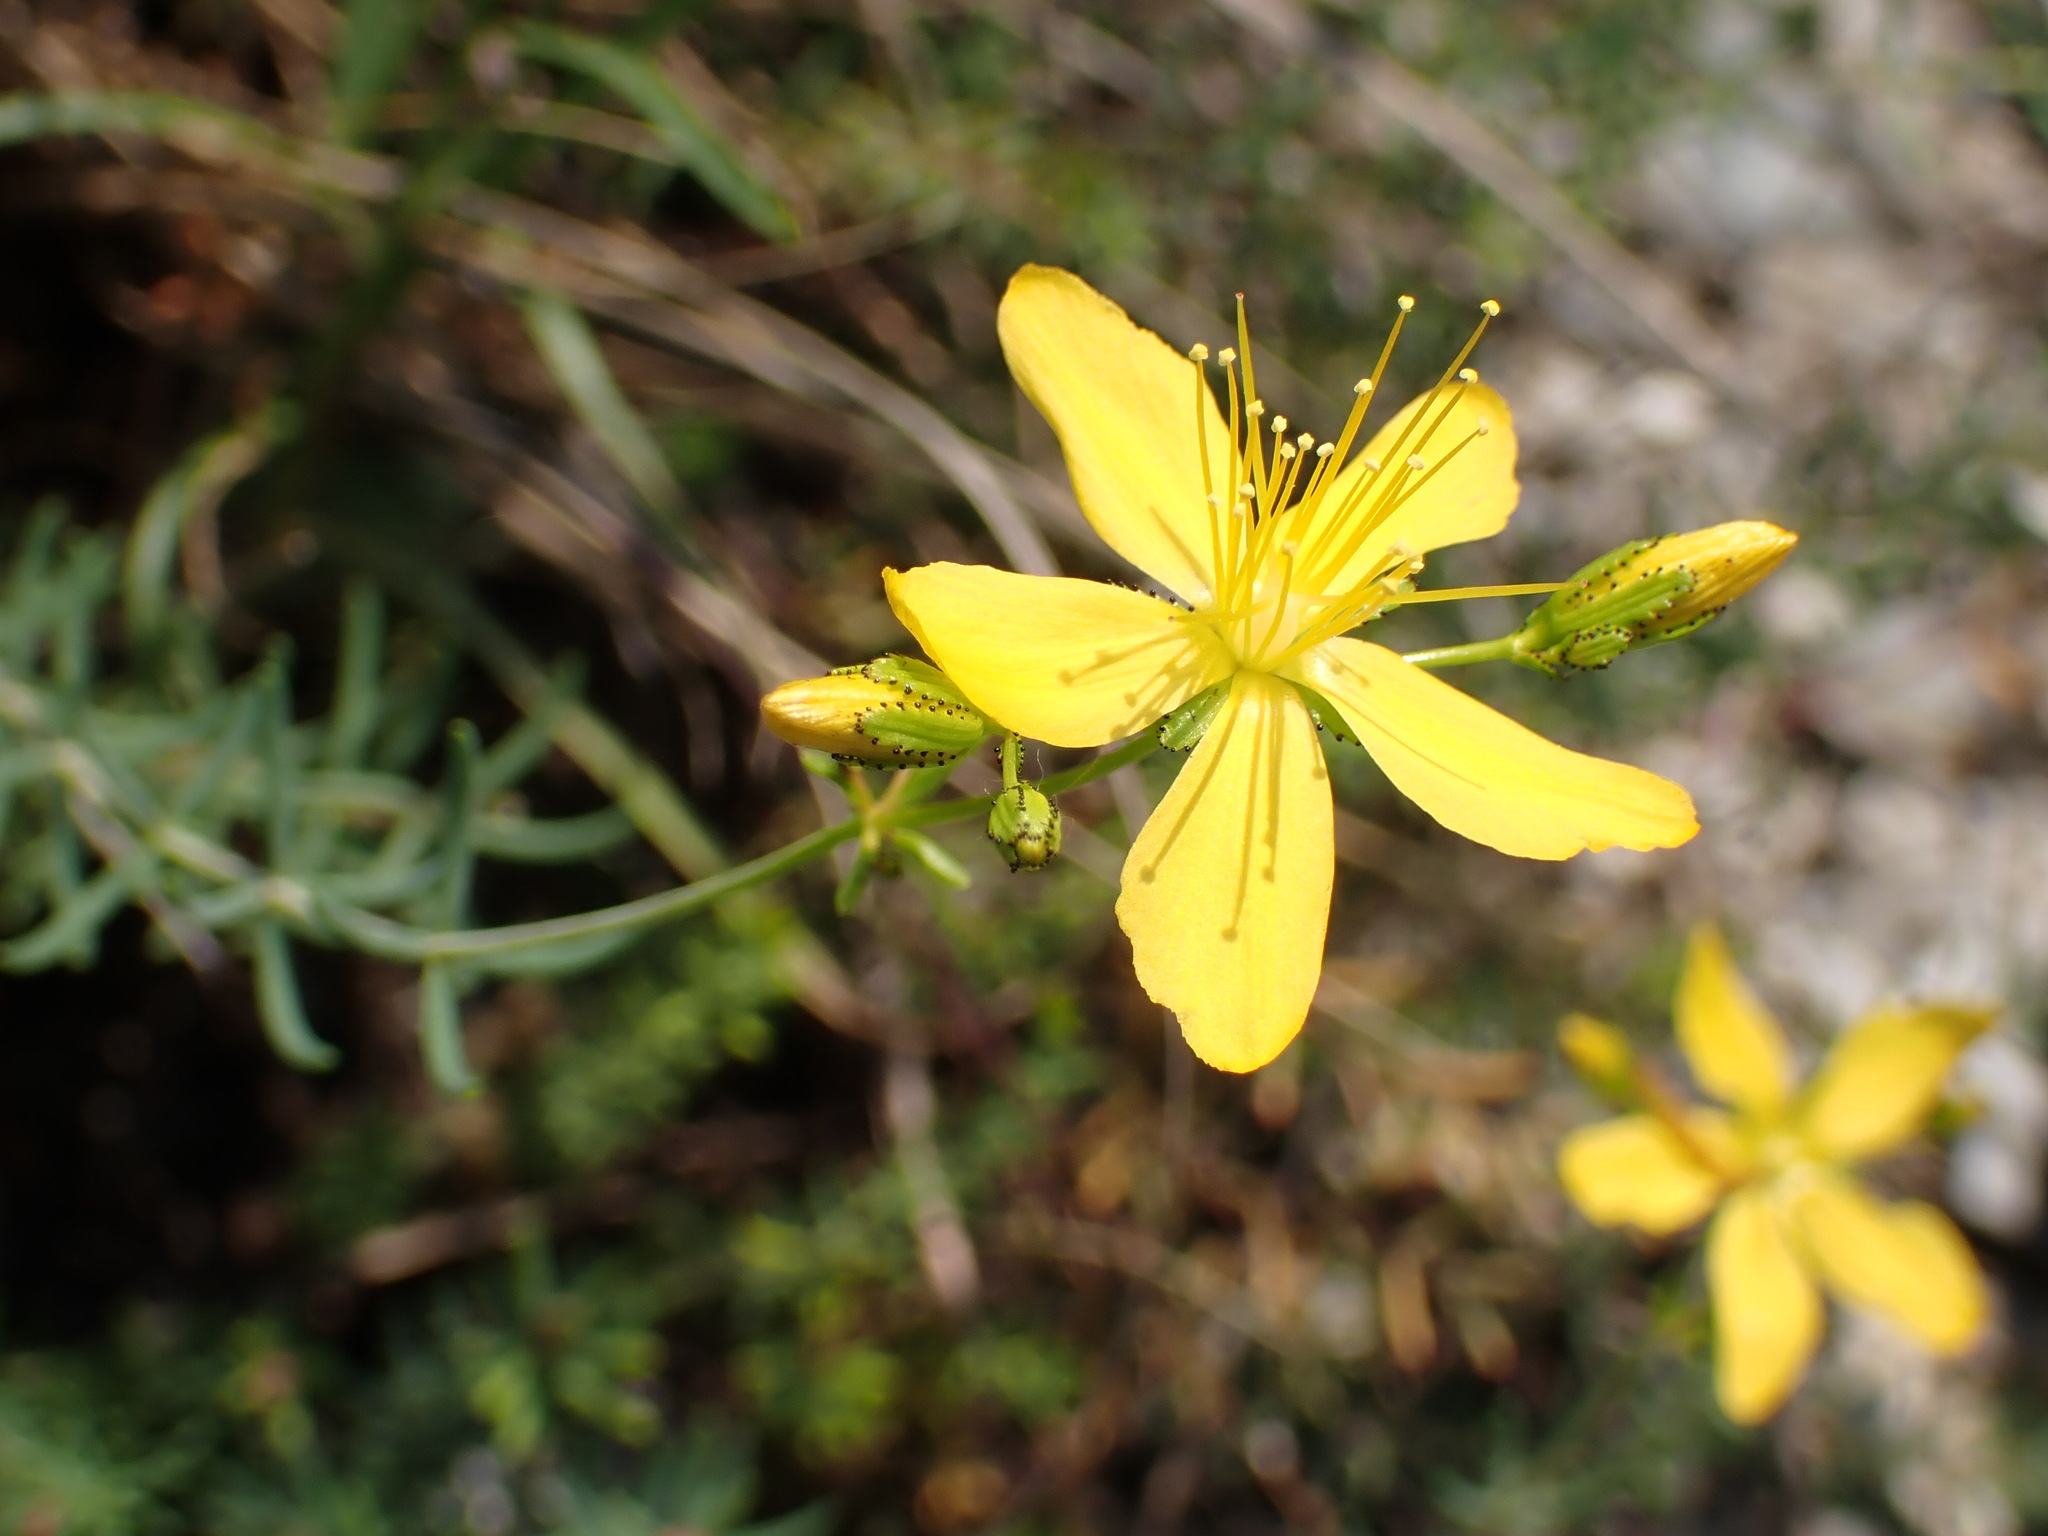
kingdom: Plantae
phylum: Tracheophyta
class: Magnoliopsida
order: Malpighiales
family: Hypericaceae
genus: Hypericum
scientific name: Hypericum coris
